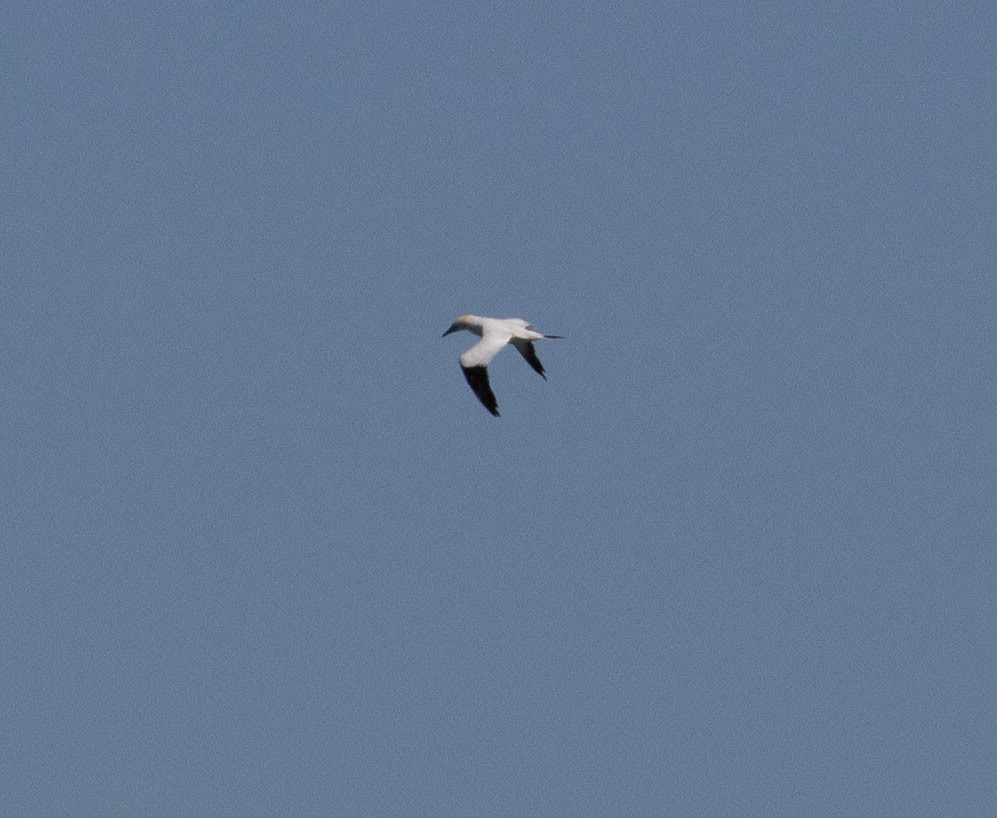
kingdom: Animalia
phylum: Chordata
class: Aves
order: Suliformes
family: Sulidae
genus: Morus
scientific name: Morus bassanus
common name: Northern gannet
